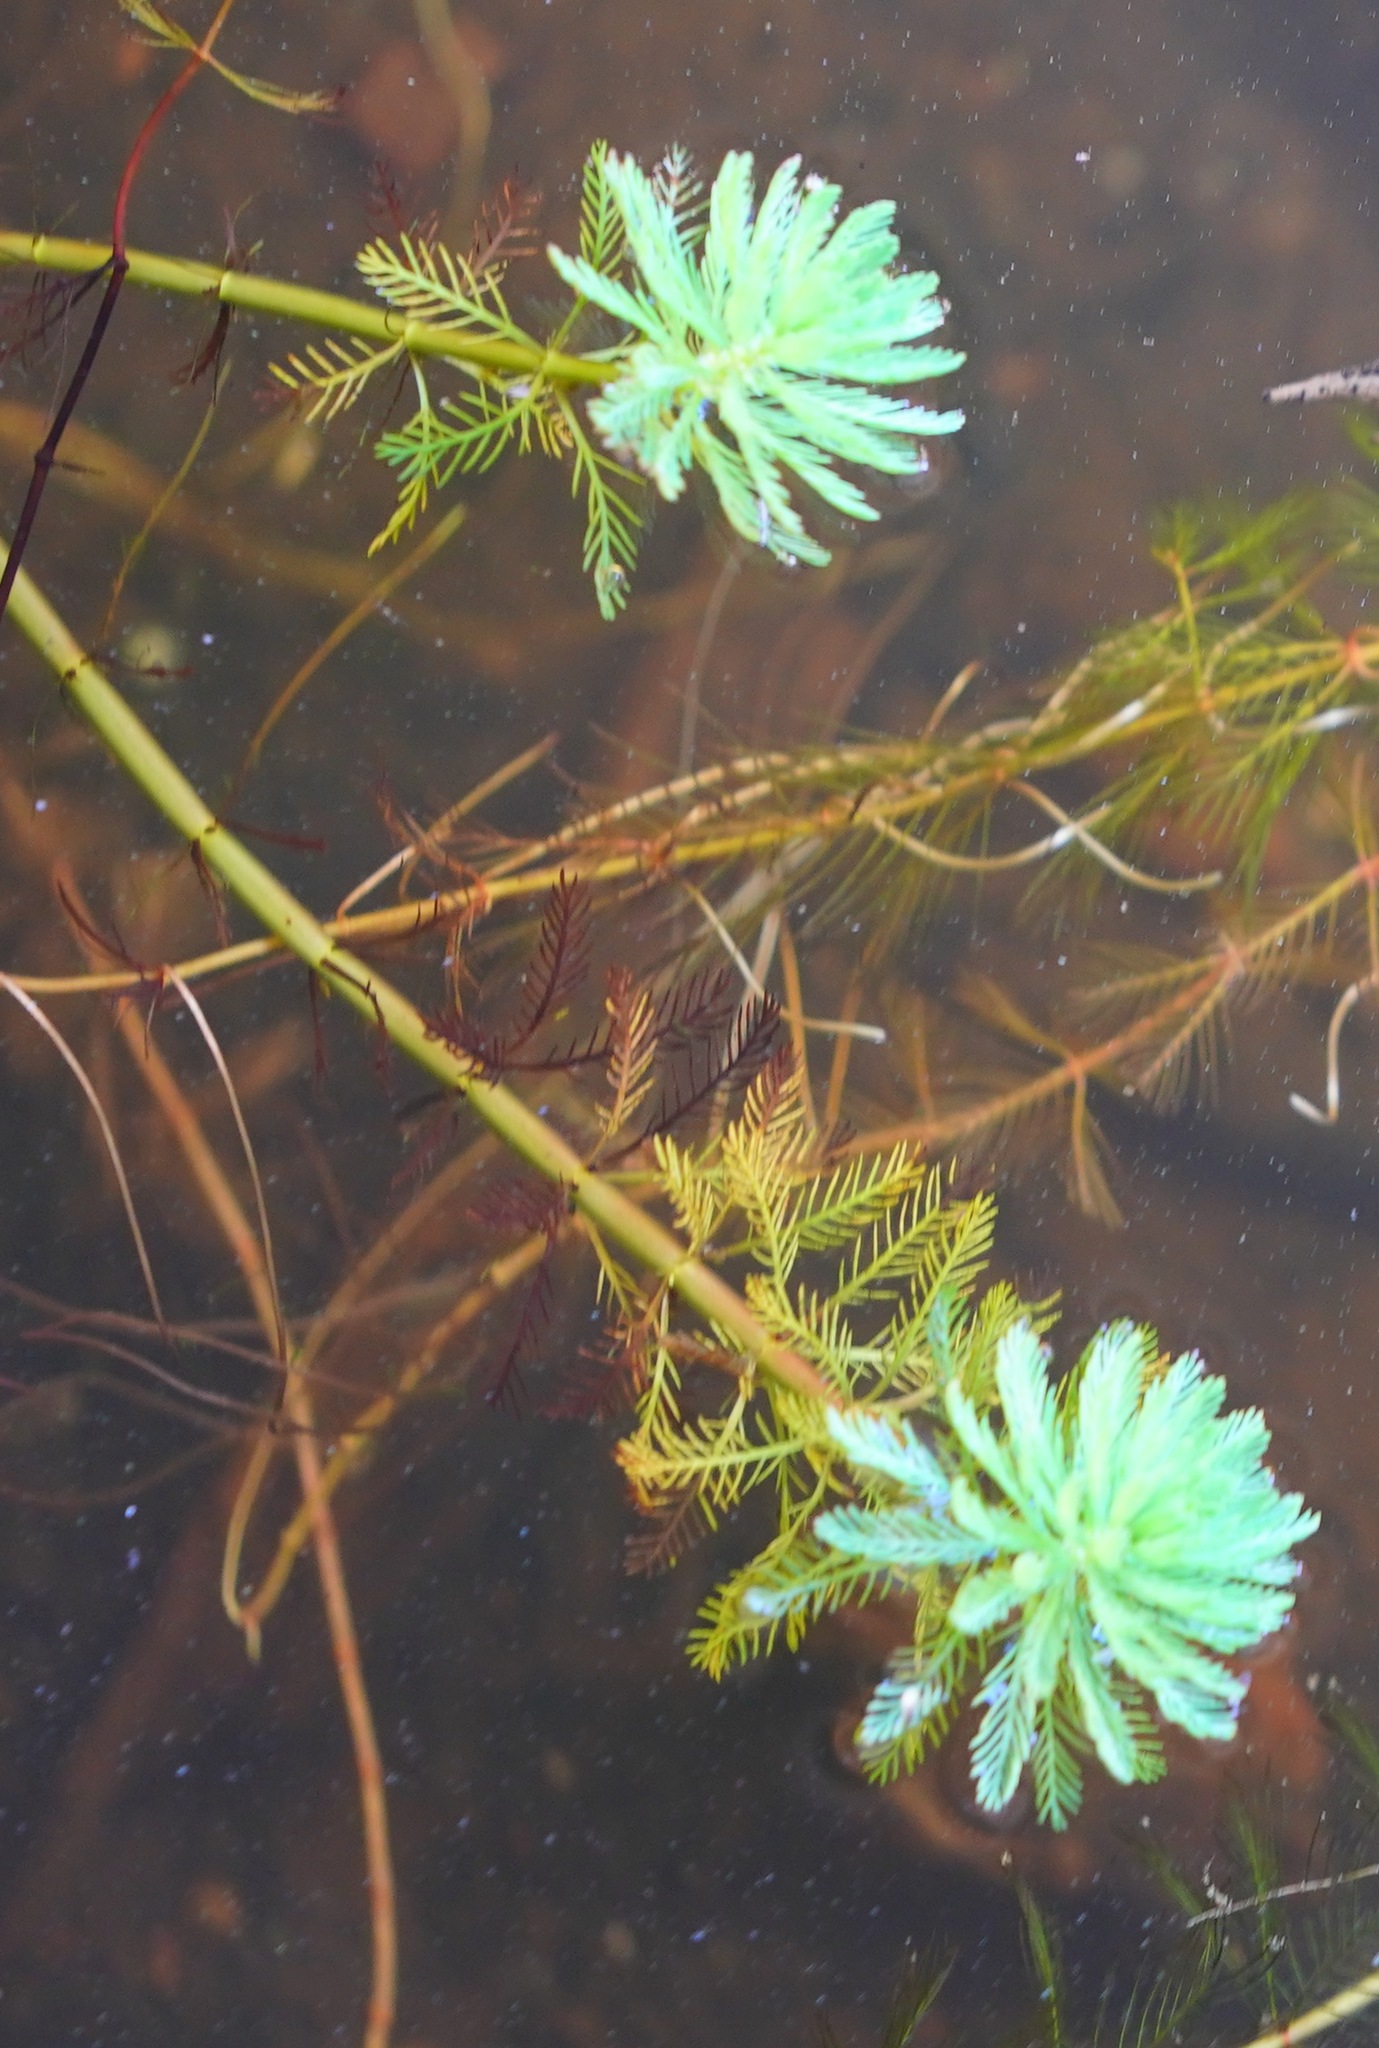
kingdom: Plantae
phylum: Tracheophyta
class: Magnoliopsida
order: Saxifragales
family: Haloragaceae
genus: Myriophyllum
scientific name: Myriophyllum aquaticum
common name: Parrot's feather
